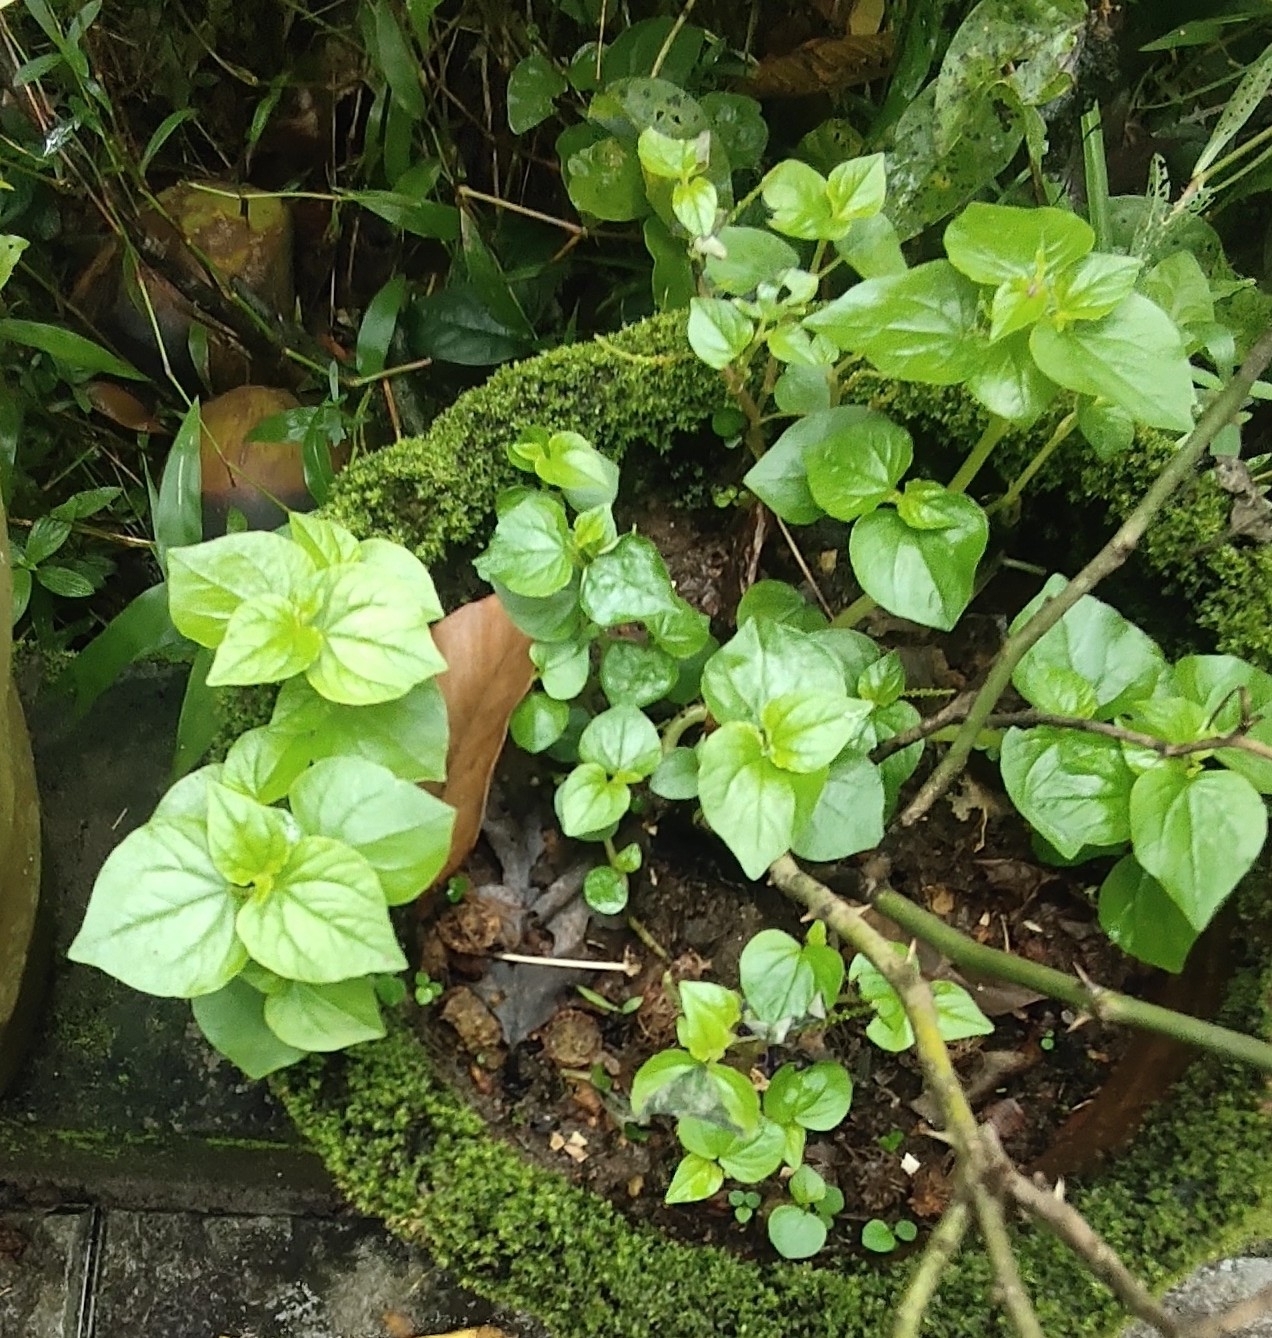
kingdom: Plantae
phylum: Tracheophyta
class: Magnoliopsida
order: Piperales
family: Piperaceae
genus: Peperomia
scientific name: Peperomia pellucida
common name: Man to man
